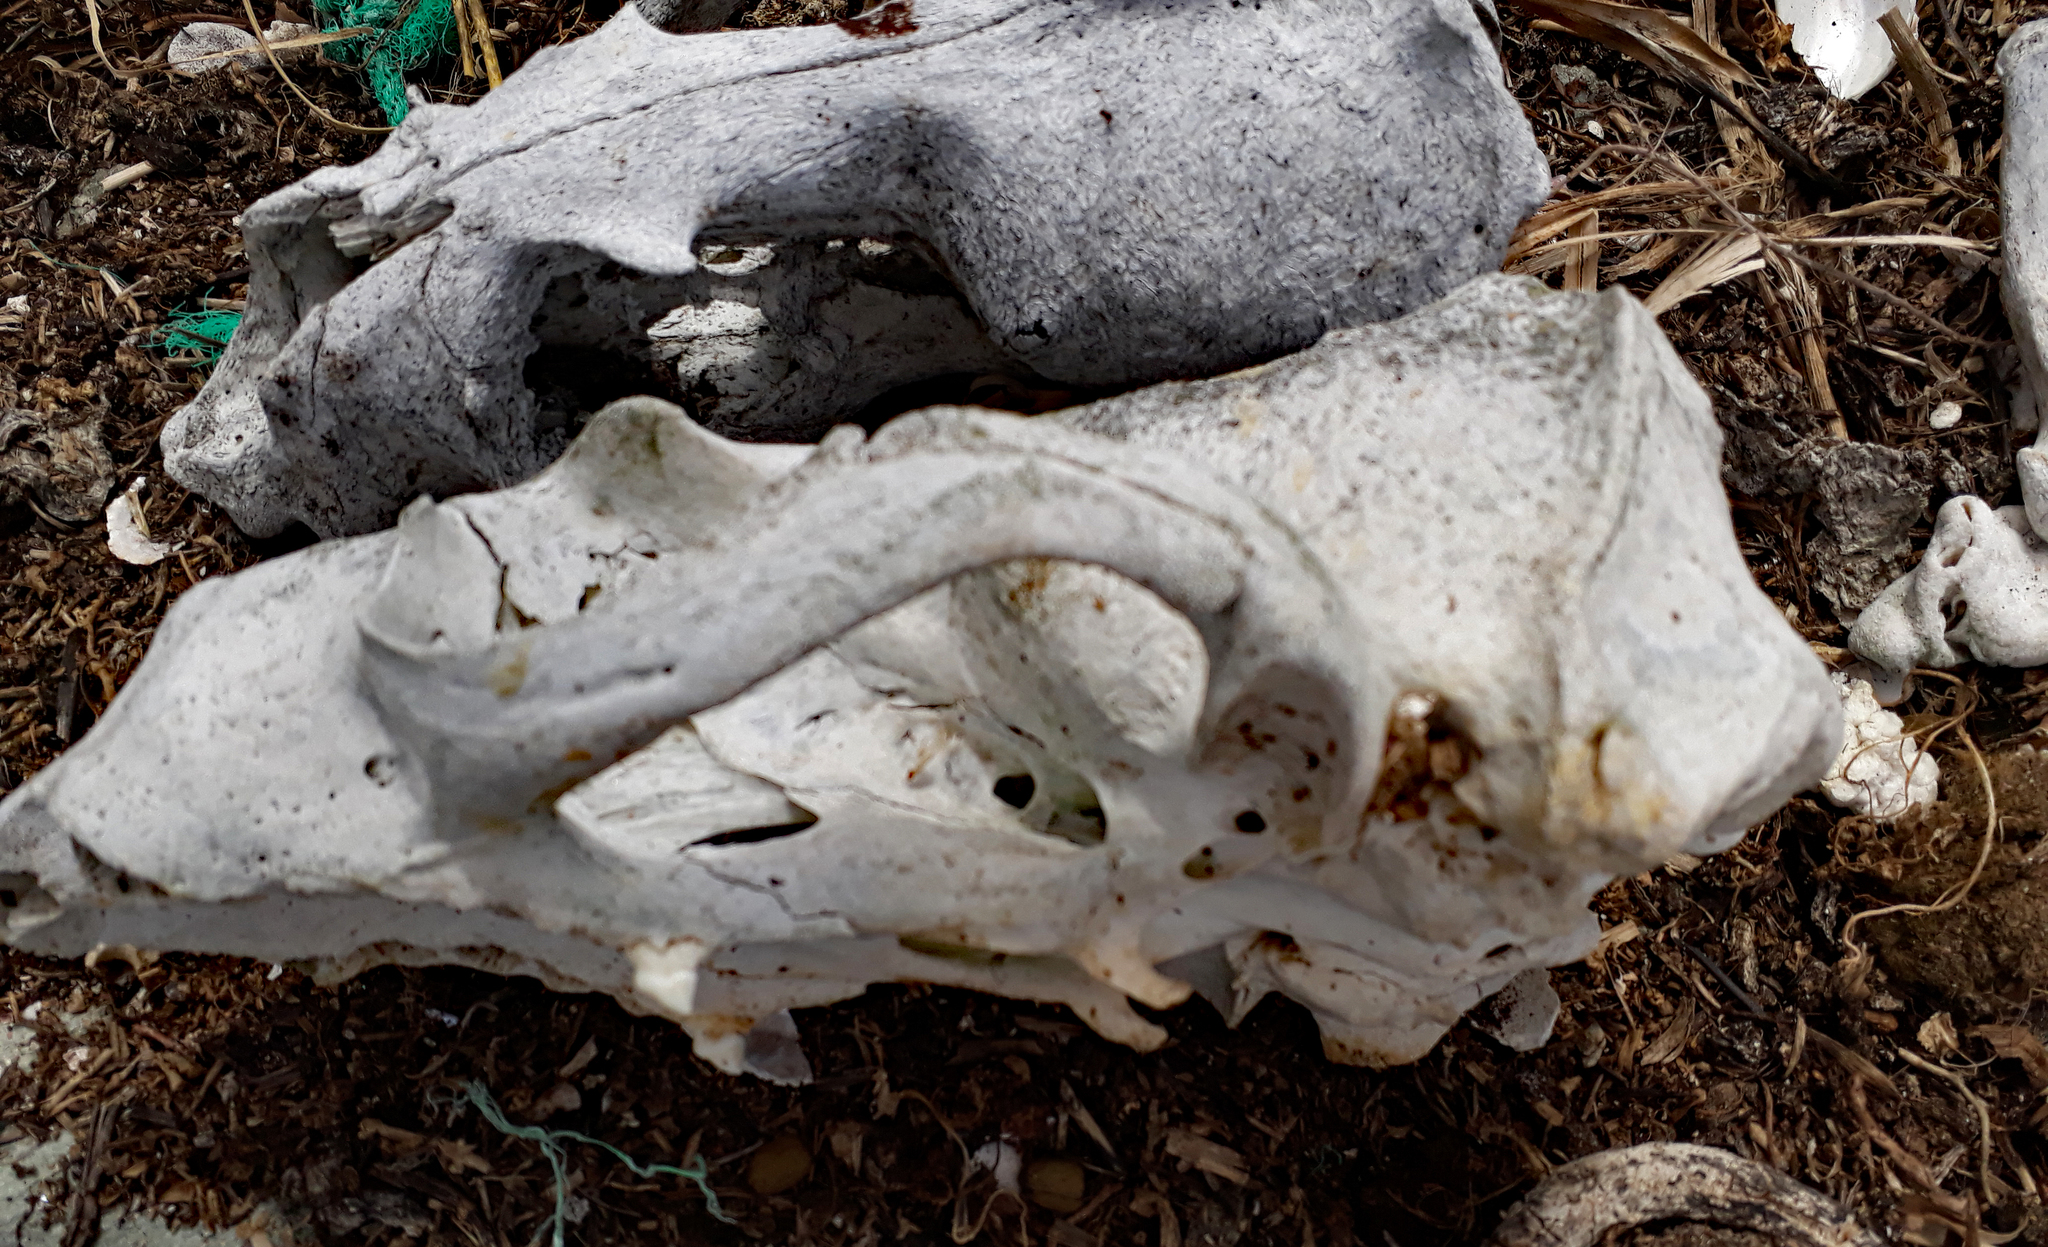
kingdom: Animalia
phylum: Chordata
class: Mammalia
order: Carnivora
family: Otariidae
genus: Arctocephalus
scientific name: Arctocephalus forsteri
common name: New zealand fur seal
